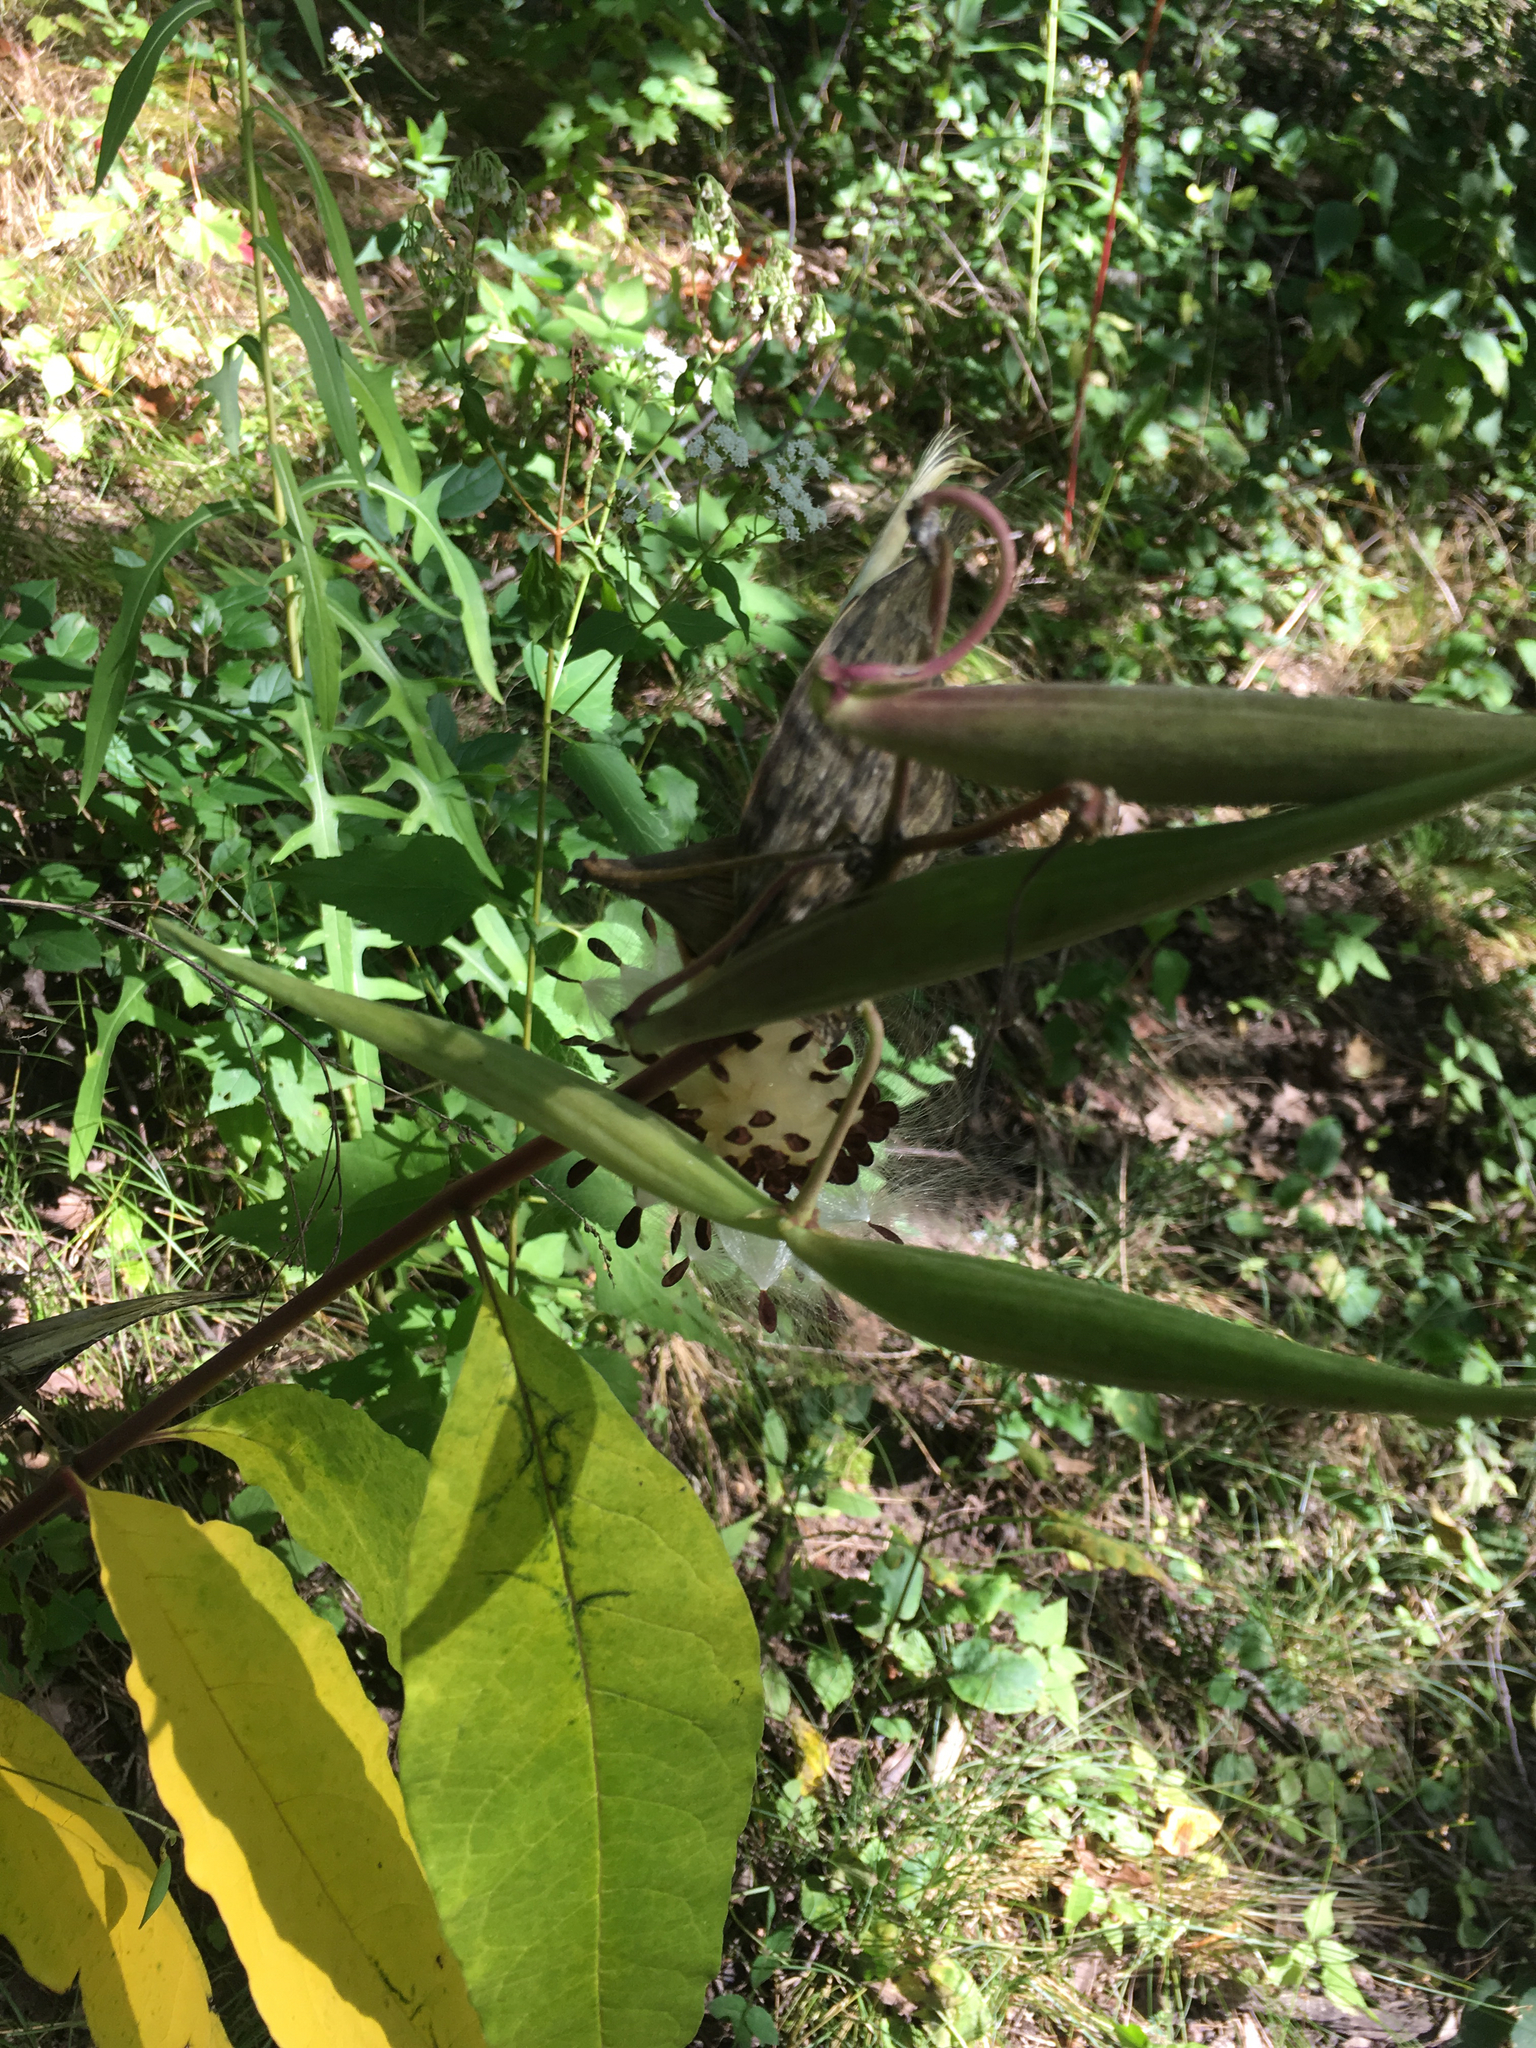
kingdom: Plantae
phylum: Tracheophyta
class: Magnoliopsida
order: Gentianales
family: Apocynaceae
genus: Asclepias
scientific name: Asclepias exaltata
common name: Poke milkweed
